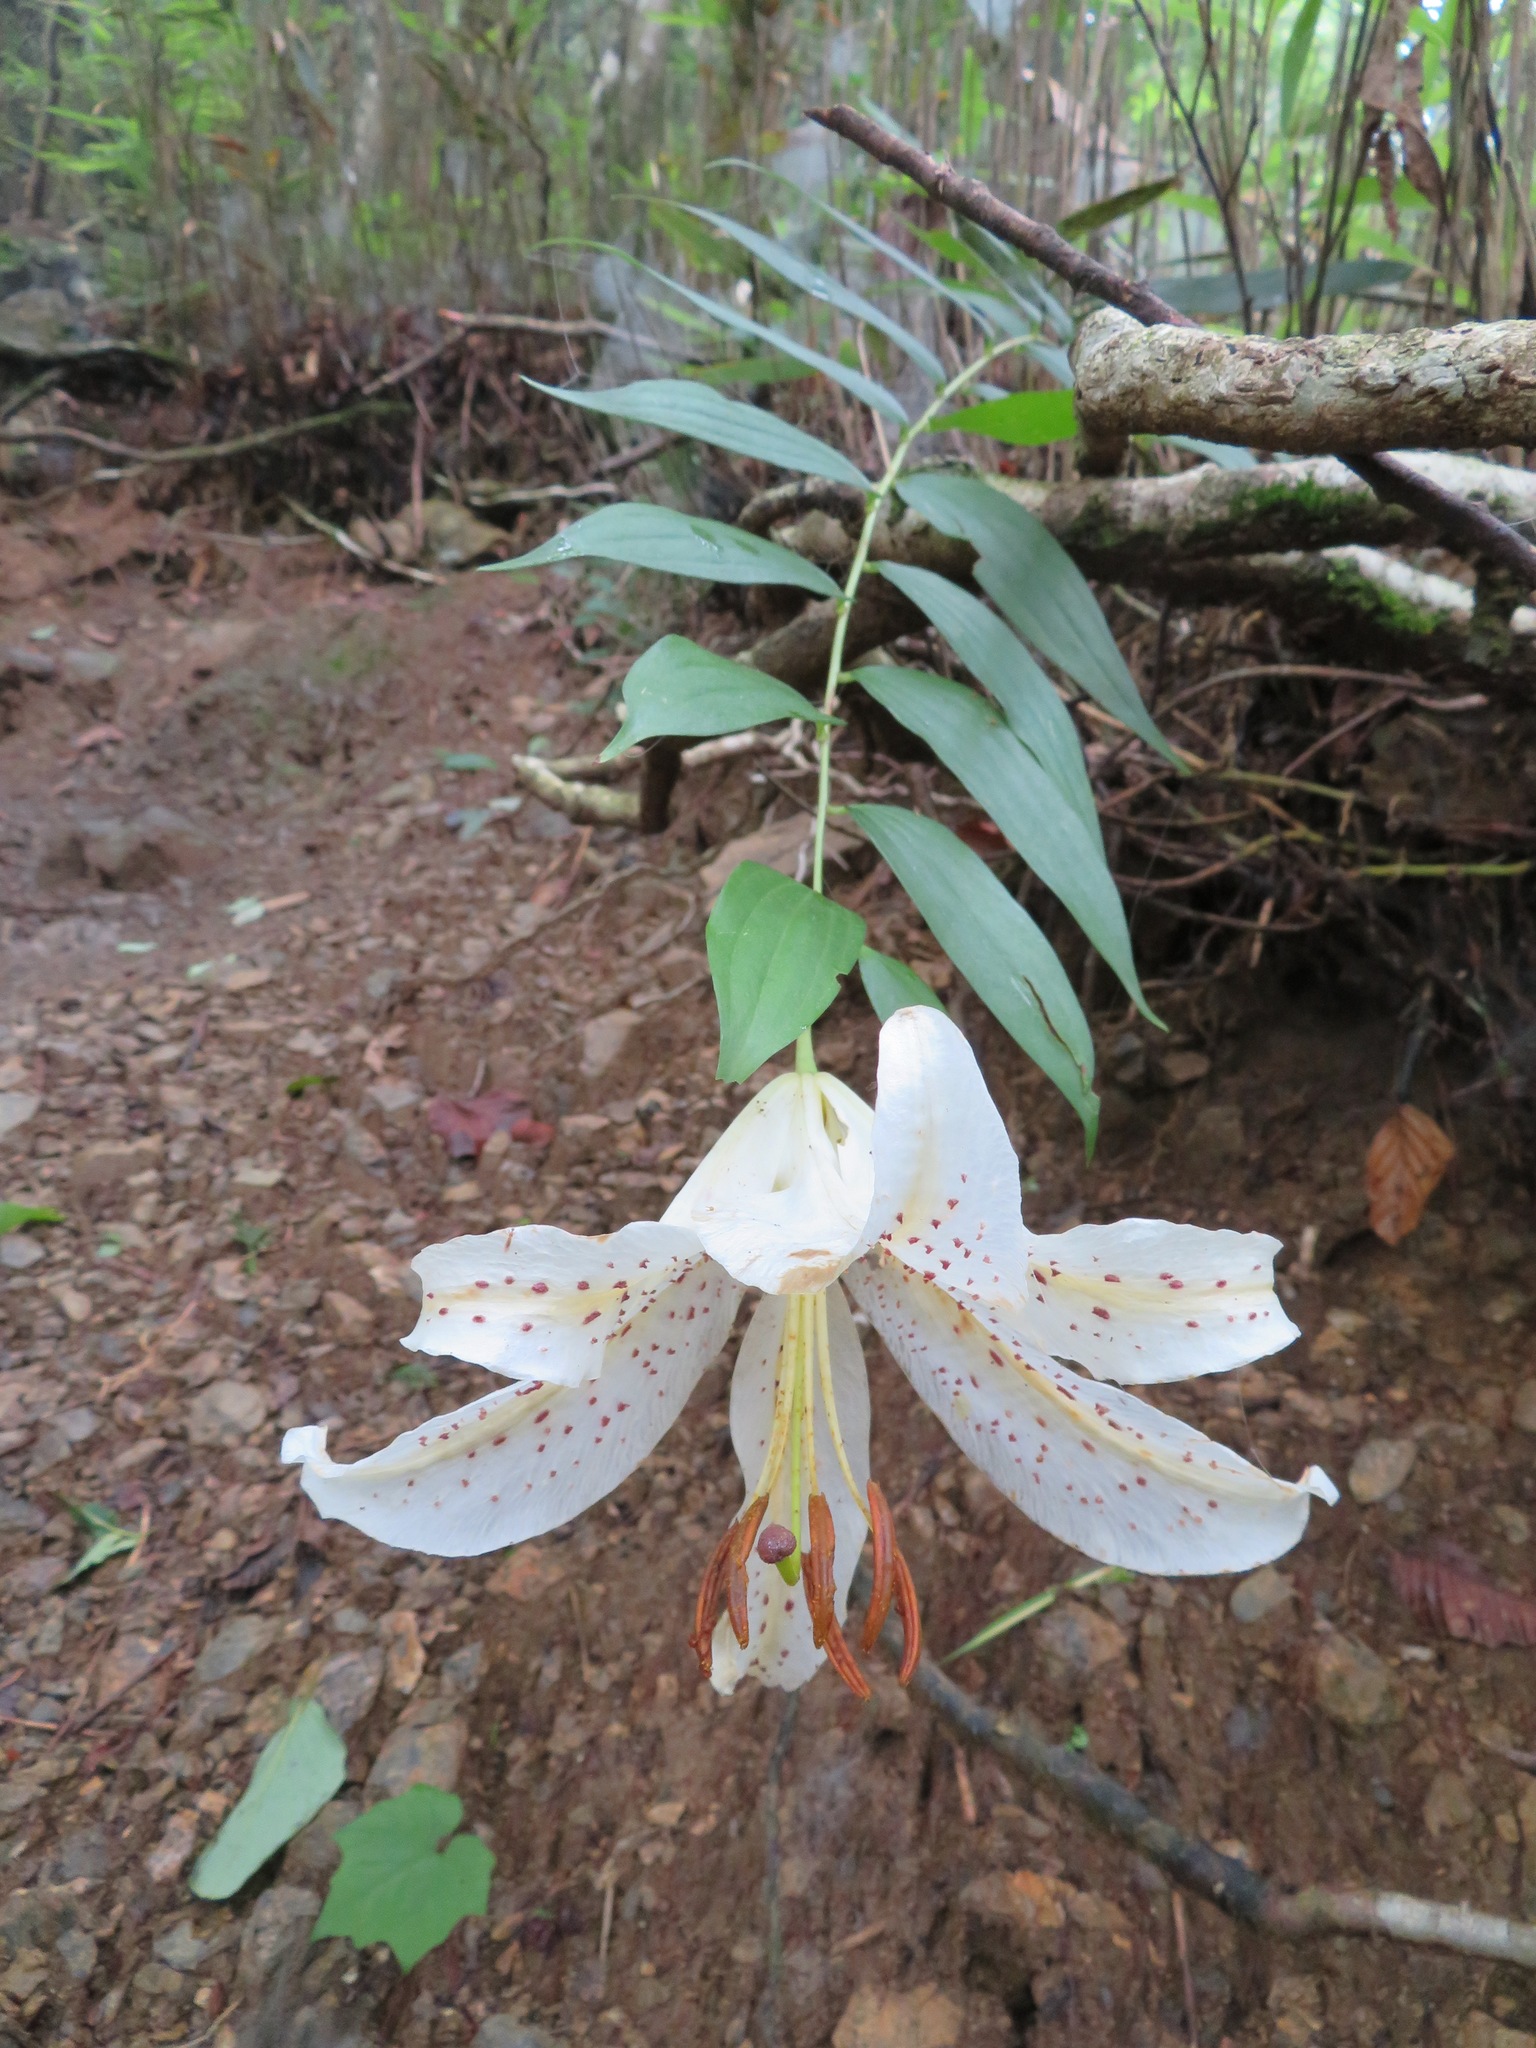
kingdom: Plantae
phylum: Tracheophyta
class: Liliopsida
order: Liliales
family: Liliaceae
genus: Lilium
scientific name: Lilium auratum
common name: Golden-ray lily
